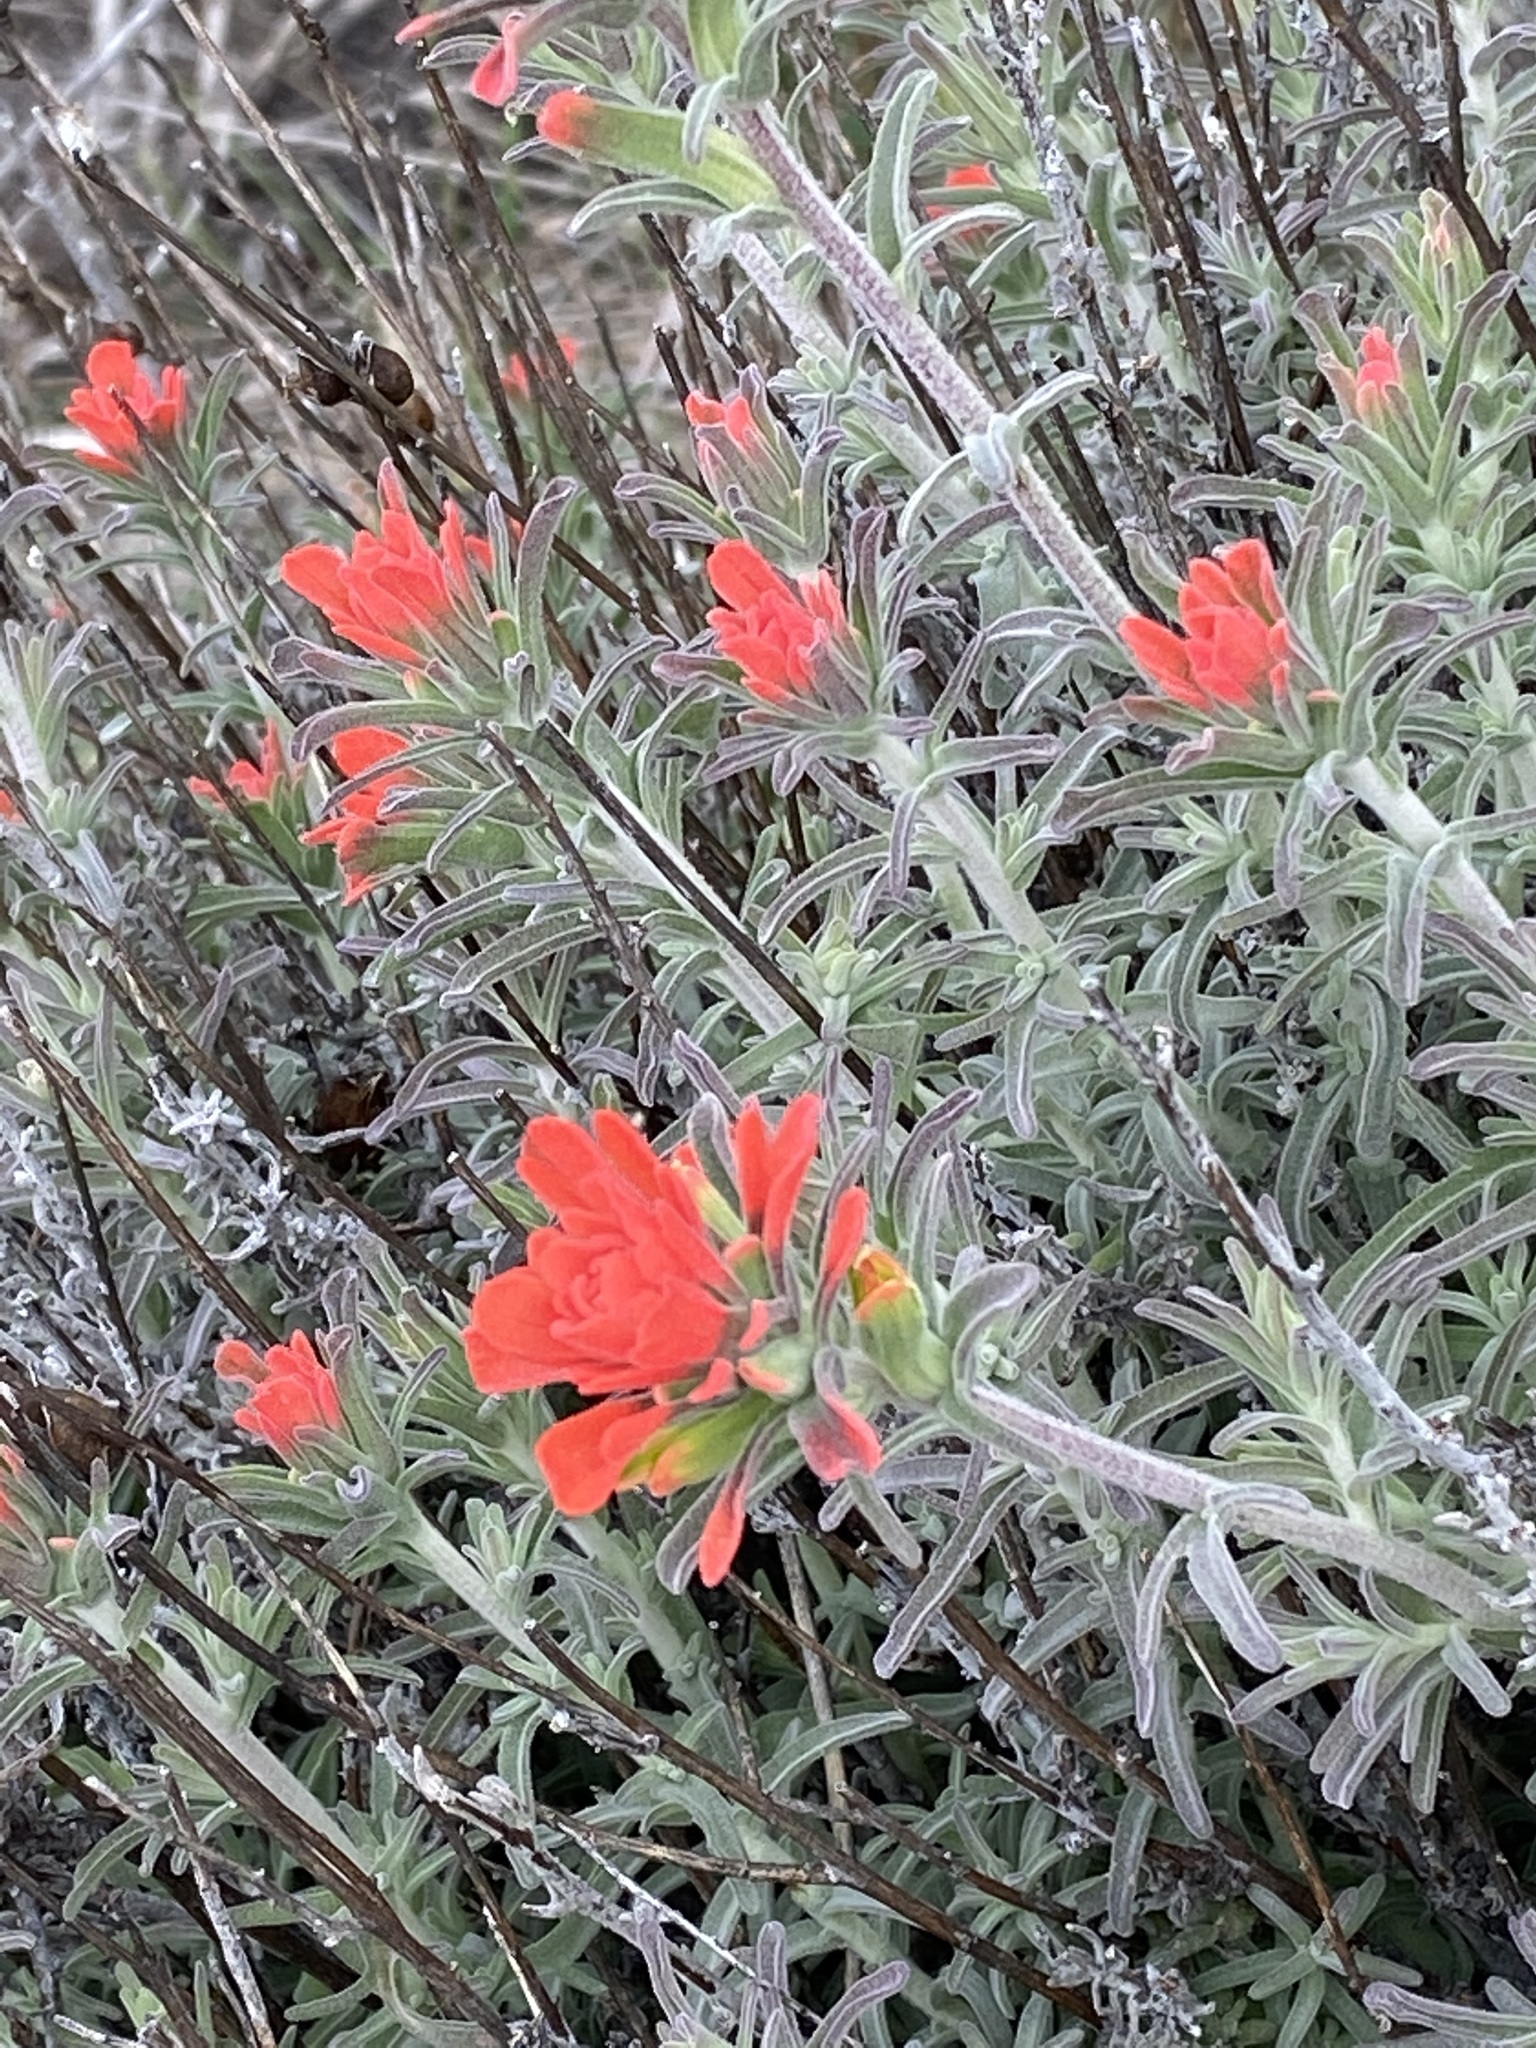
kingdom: Plantae
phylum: Tracheophyta
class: Magnoliopsida
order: Lamiales
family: Orobanchaceae
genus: Castilleja
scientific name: Castilleja foliolosa
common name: Woolly indian paintbrush
